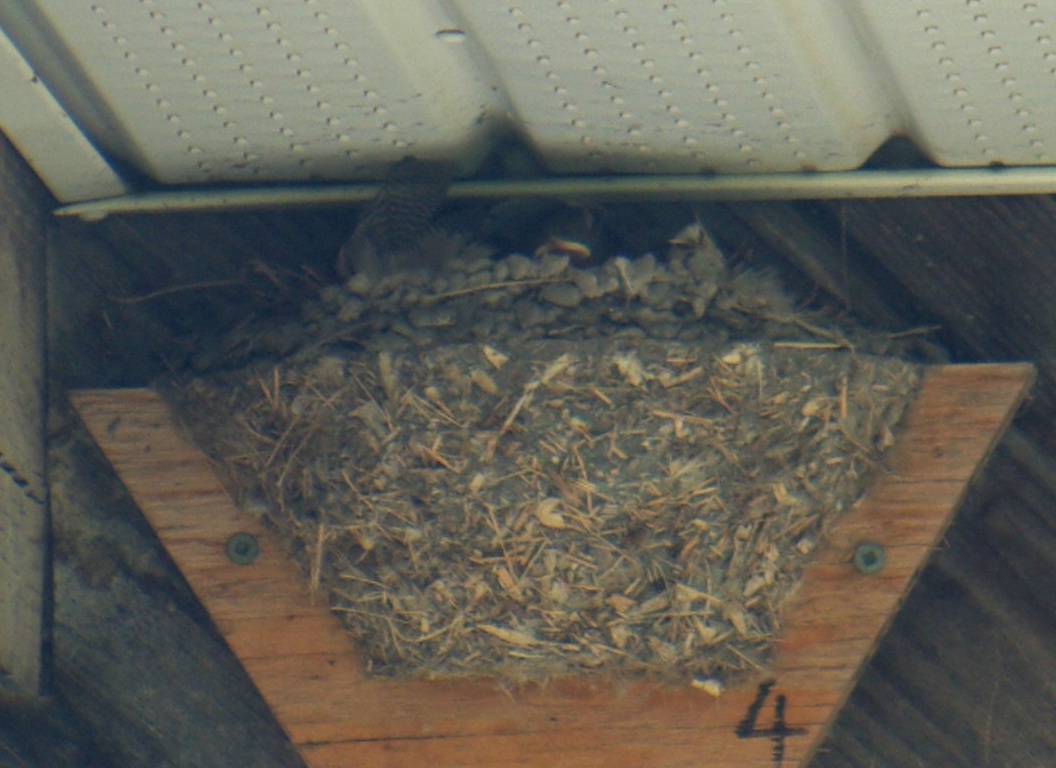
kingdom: Animalia
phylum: Chordata
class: Aves
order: Passeriformes
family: Hirundinidae
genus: Hirundo
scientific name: Hirundo rustica
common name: Barn swallow
